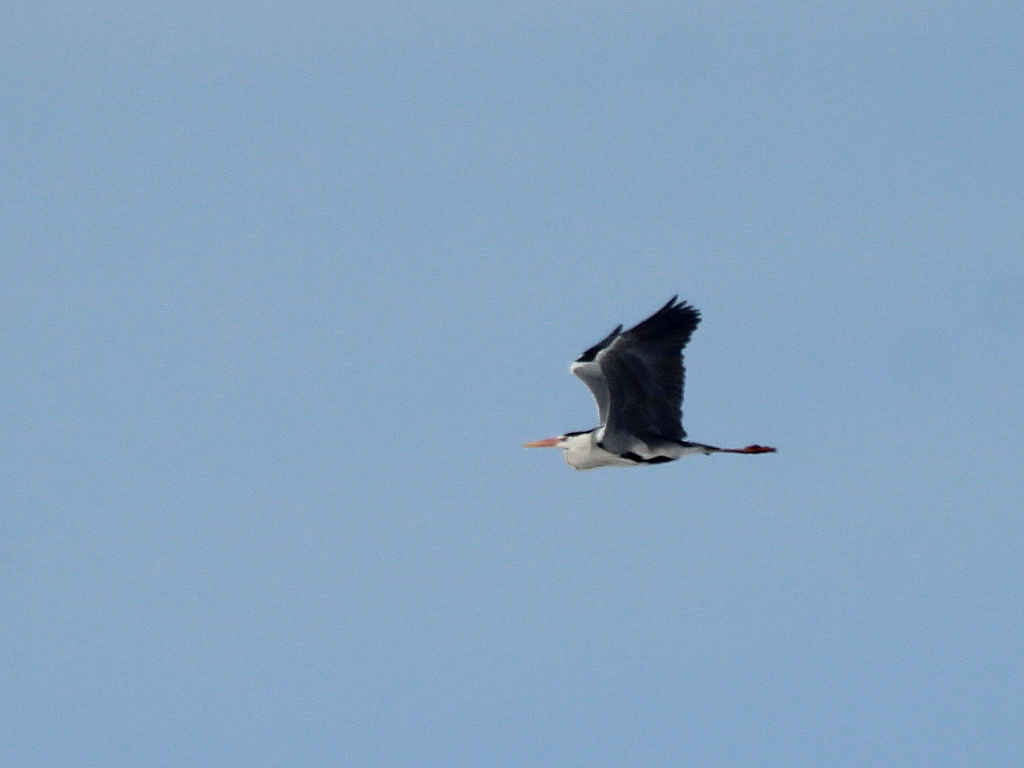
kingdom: Animalia
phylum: Chordata
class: Aves
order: Pelecaniformes
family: Ardeidae
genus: Ardea
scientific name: Ardea cinerea
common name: Grey heron
